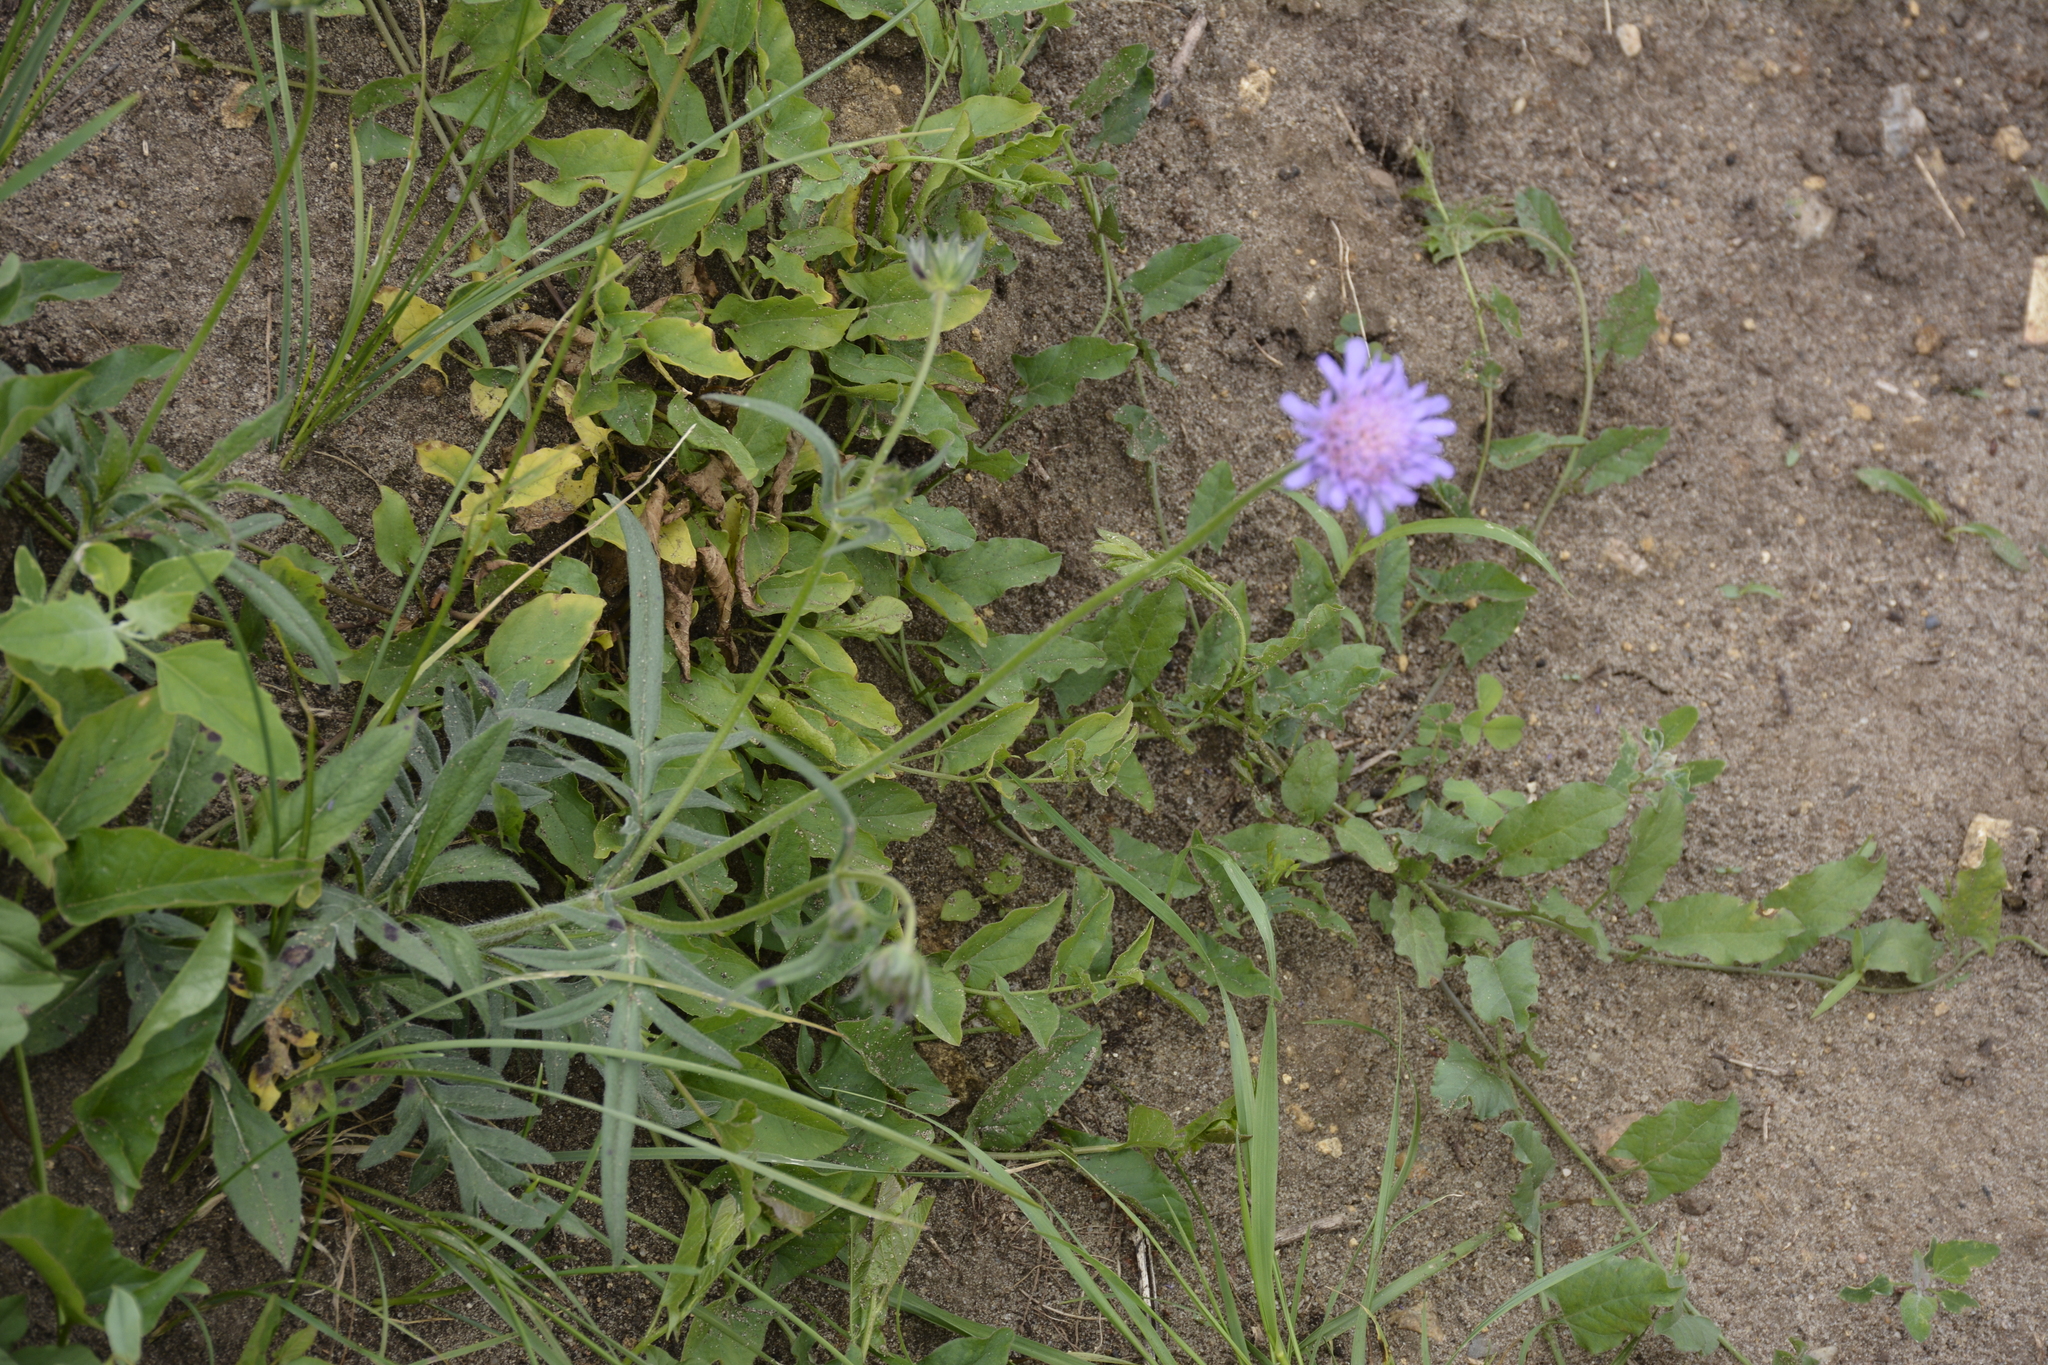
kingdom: Plantae
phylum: Tracheophyta
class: Magnoliopsida
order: Dipsacales
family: Caprifoliaceae
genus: Knautia
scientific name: Knautia arvensis
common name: Field scabiosa
